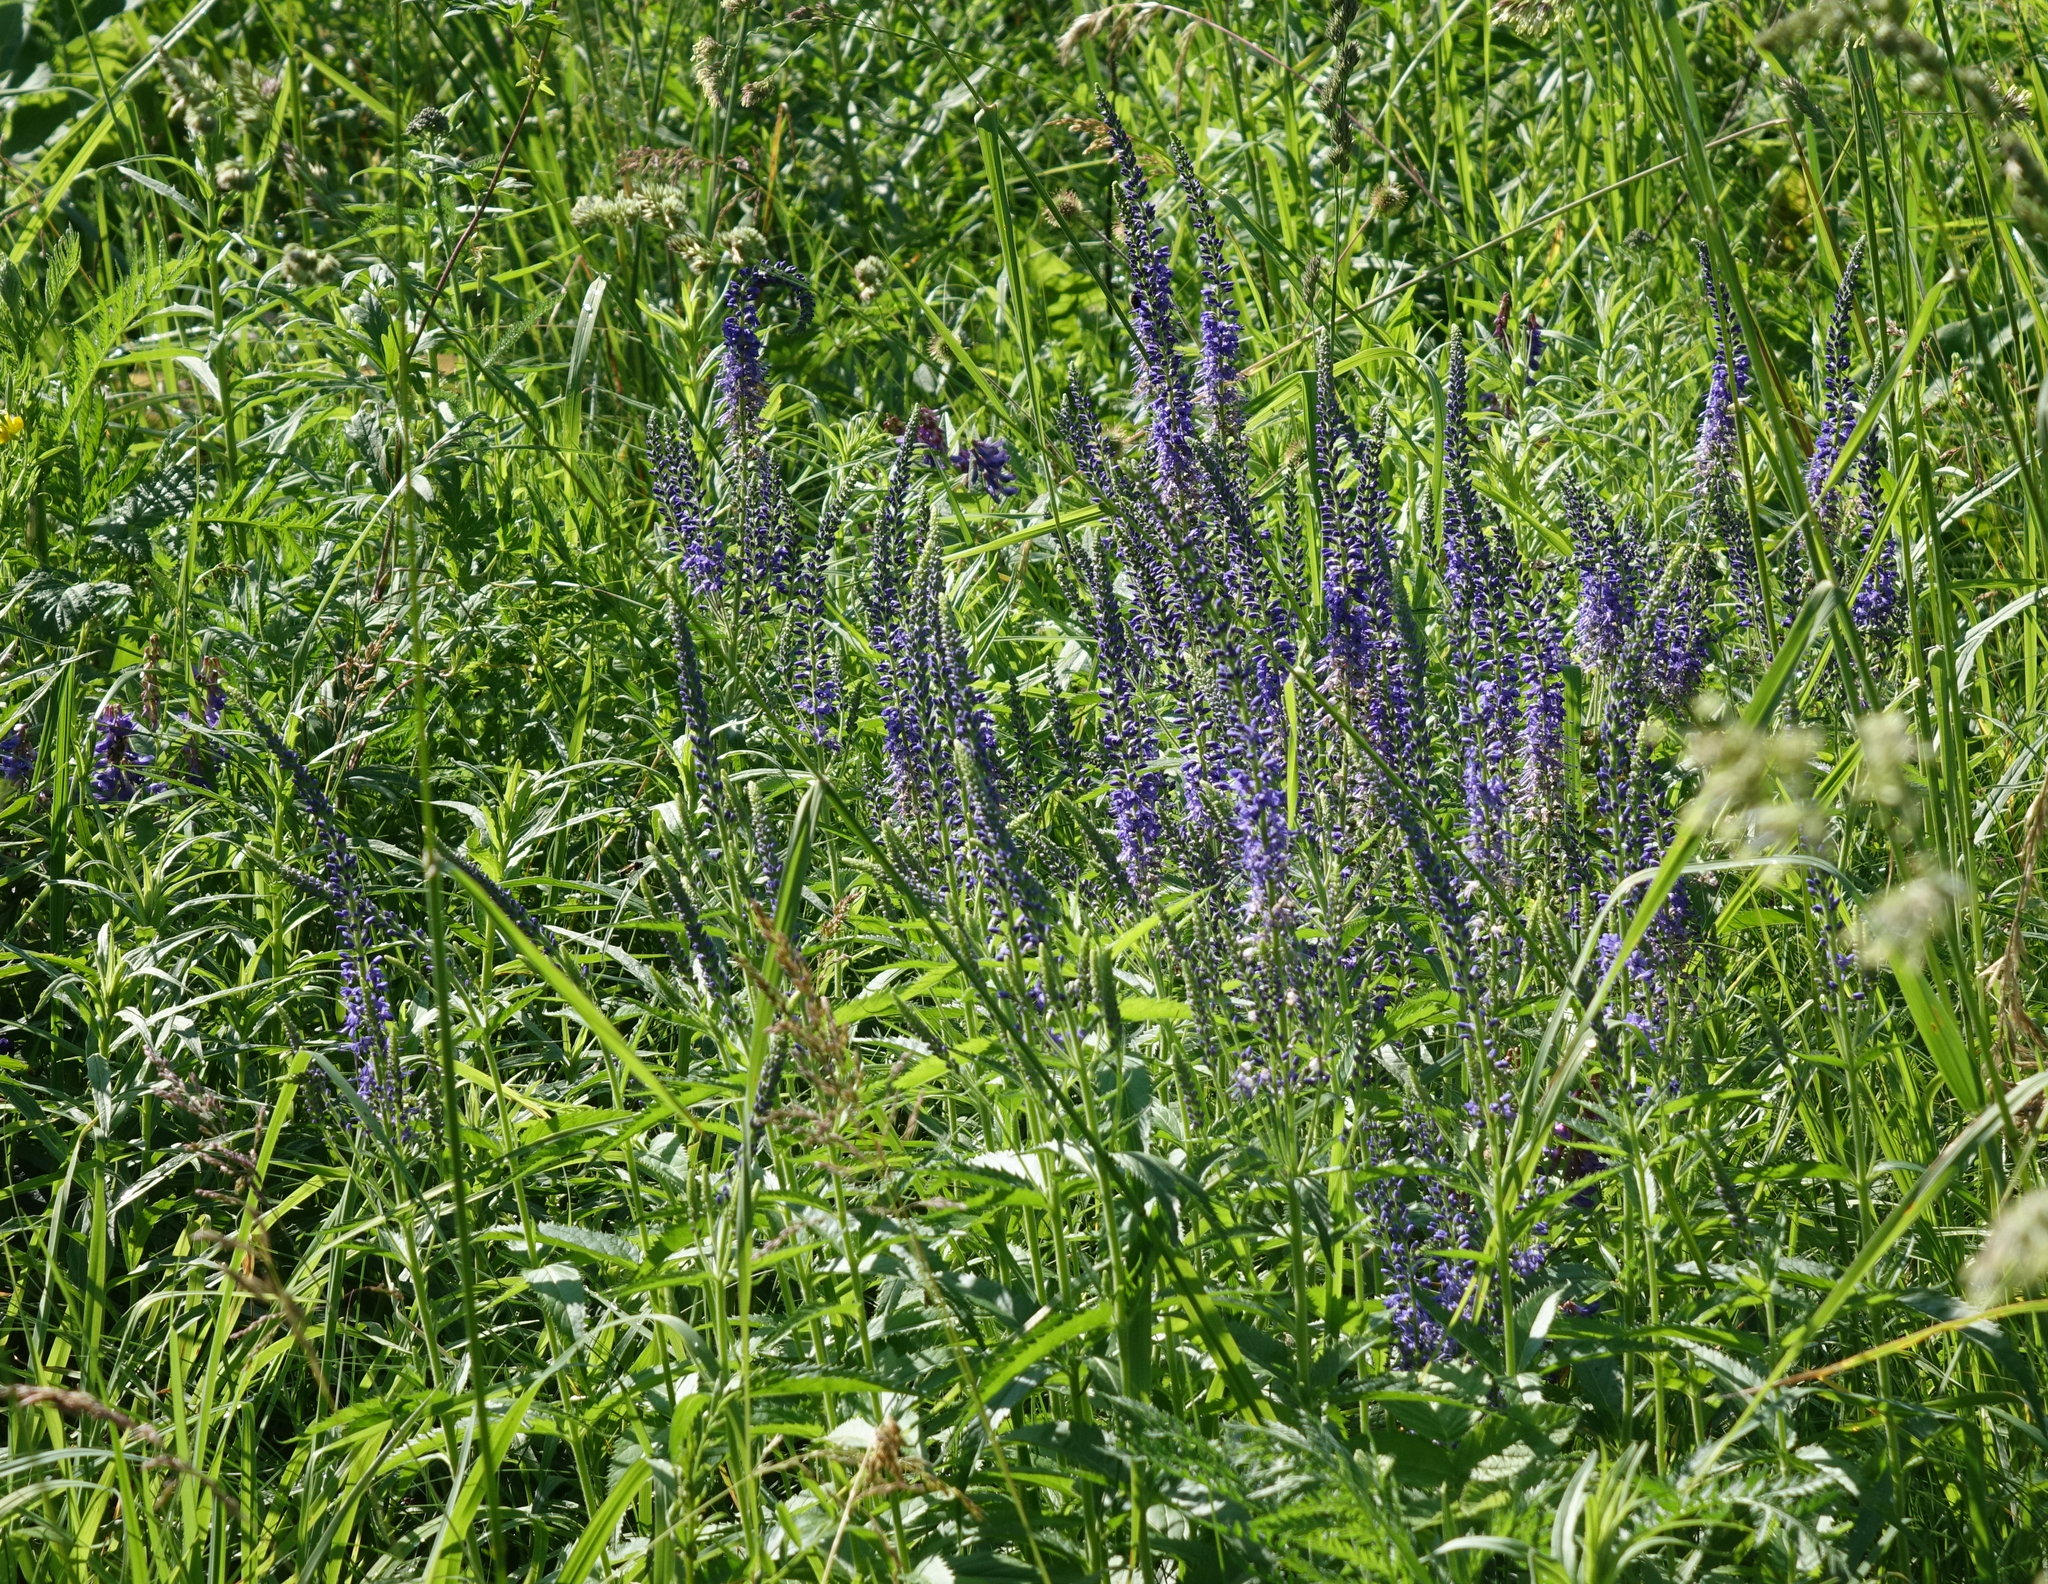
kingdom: Plantae
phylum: Tracheophyta
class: Magnoliopsida
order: Lamiales
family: Plantaginaceae
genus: Veronica
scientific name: Veronica longifolia
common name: Garden speedwell
